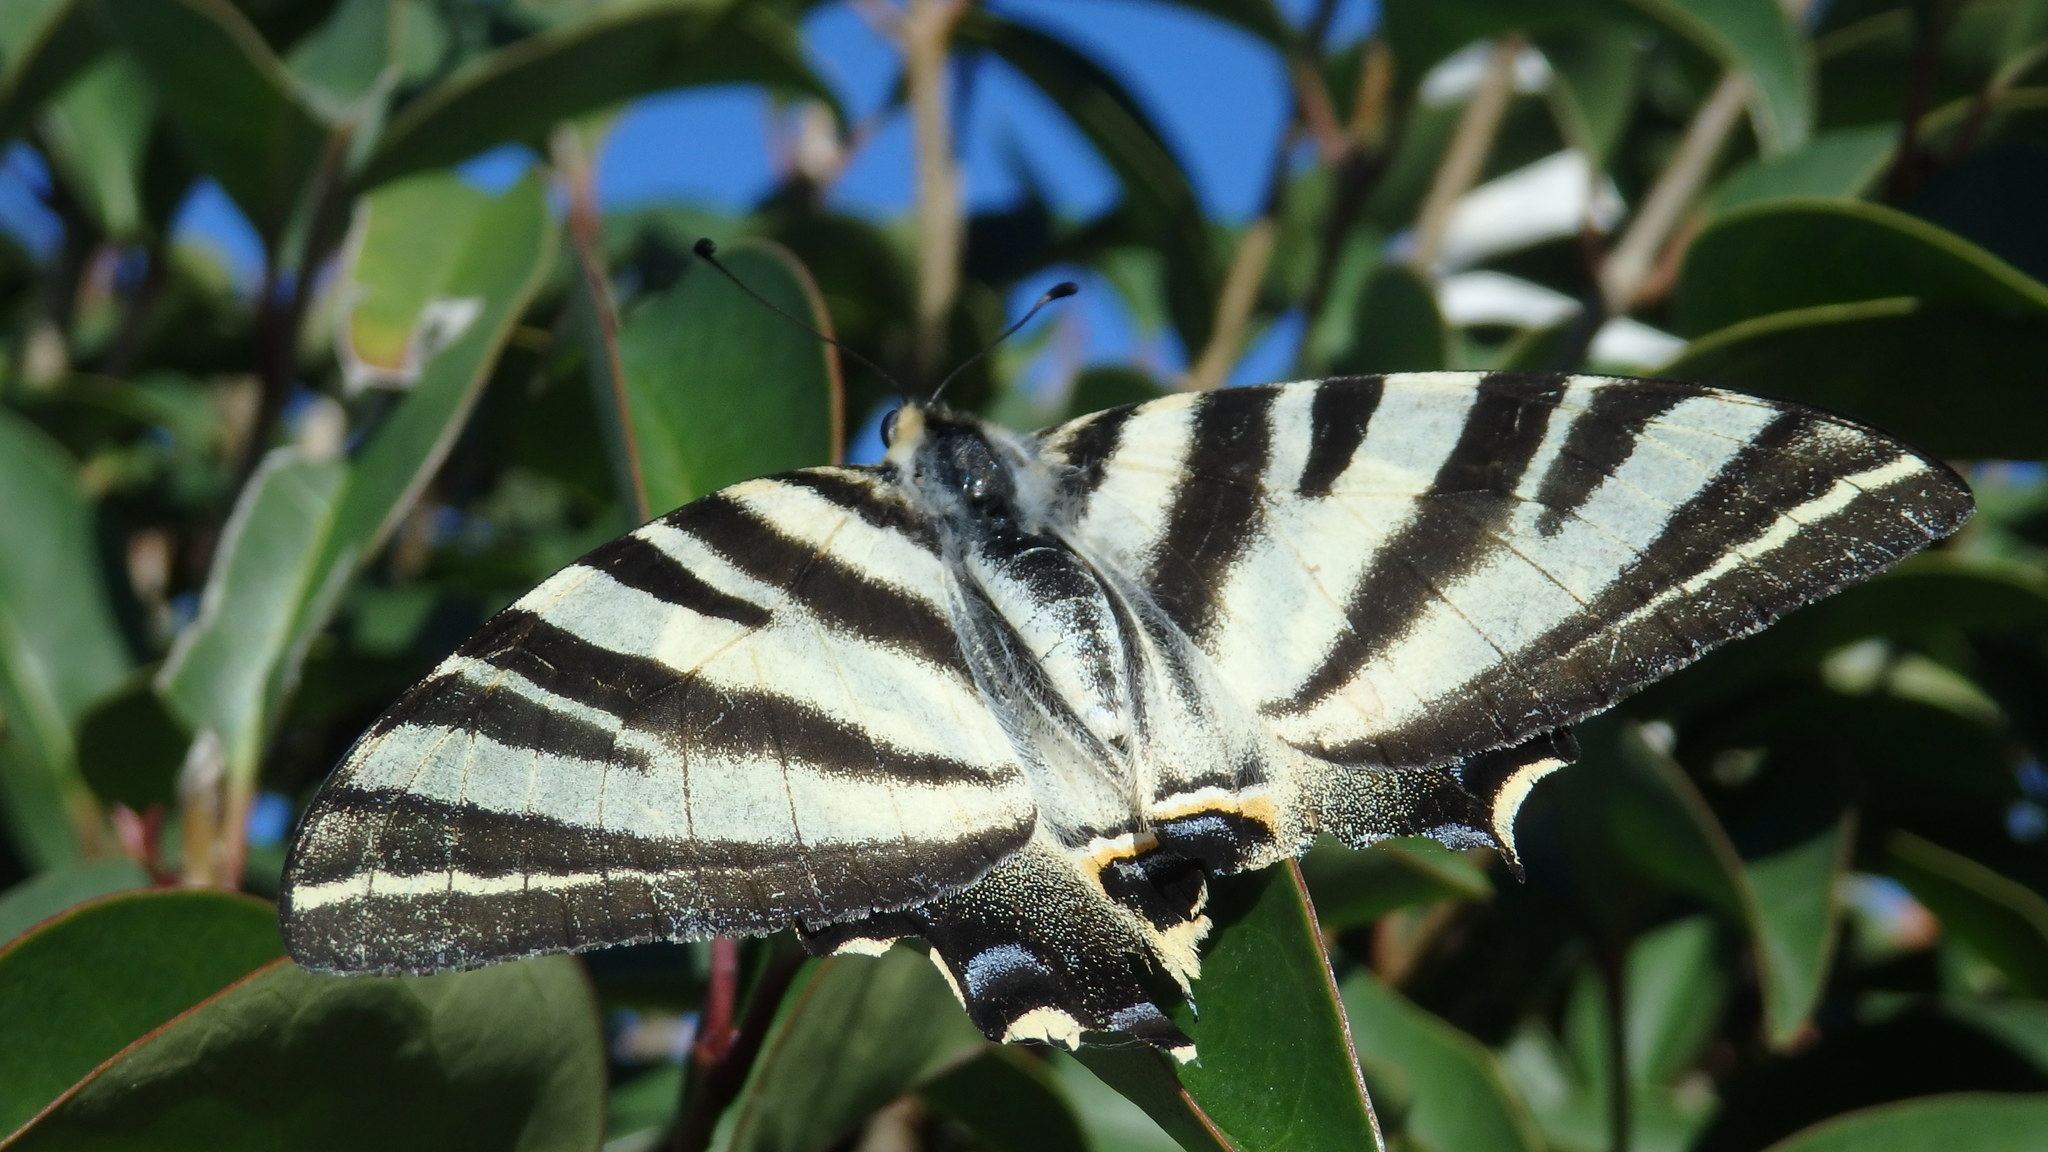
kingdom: Animalia
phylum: Arthropoda
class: Insecta
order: Lepidoptera
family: Papilionidae
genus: Iphiclides
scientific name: Iphiclides feisthamelii
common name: Iberian scarce swallowtail
